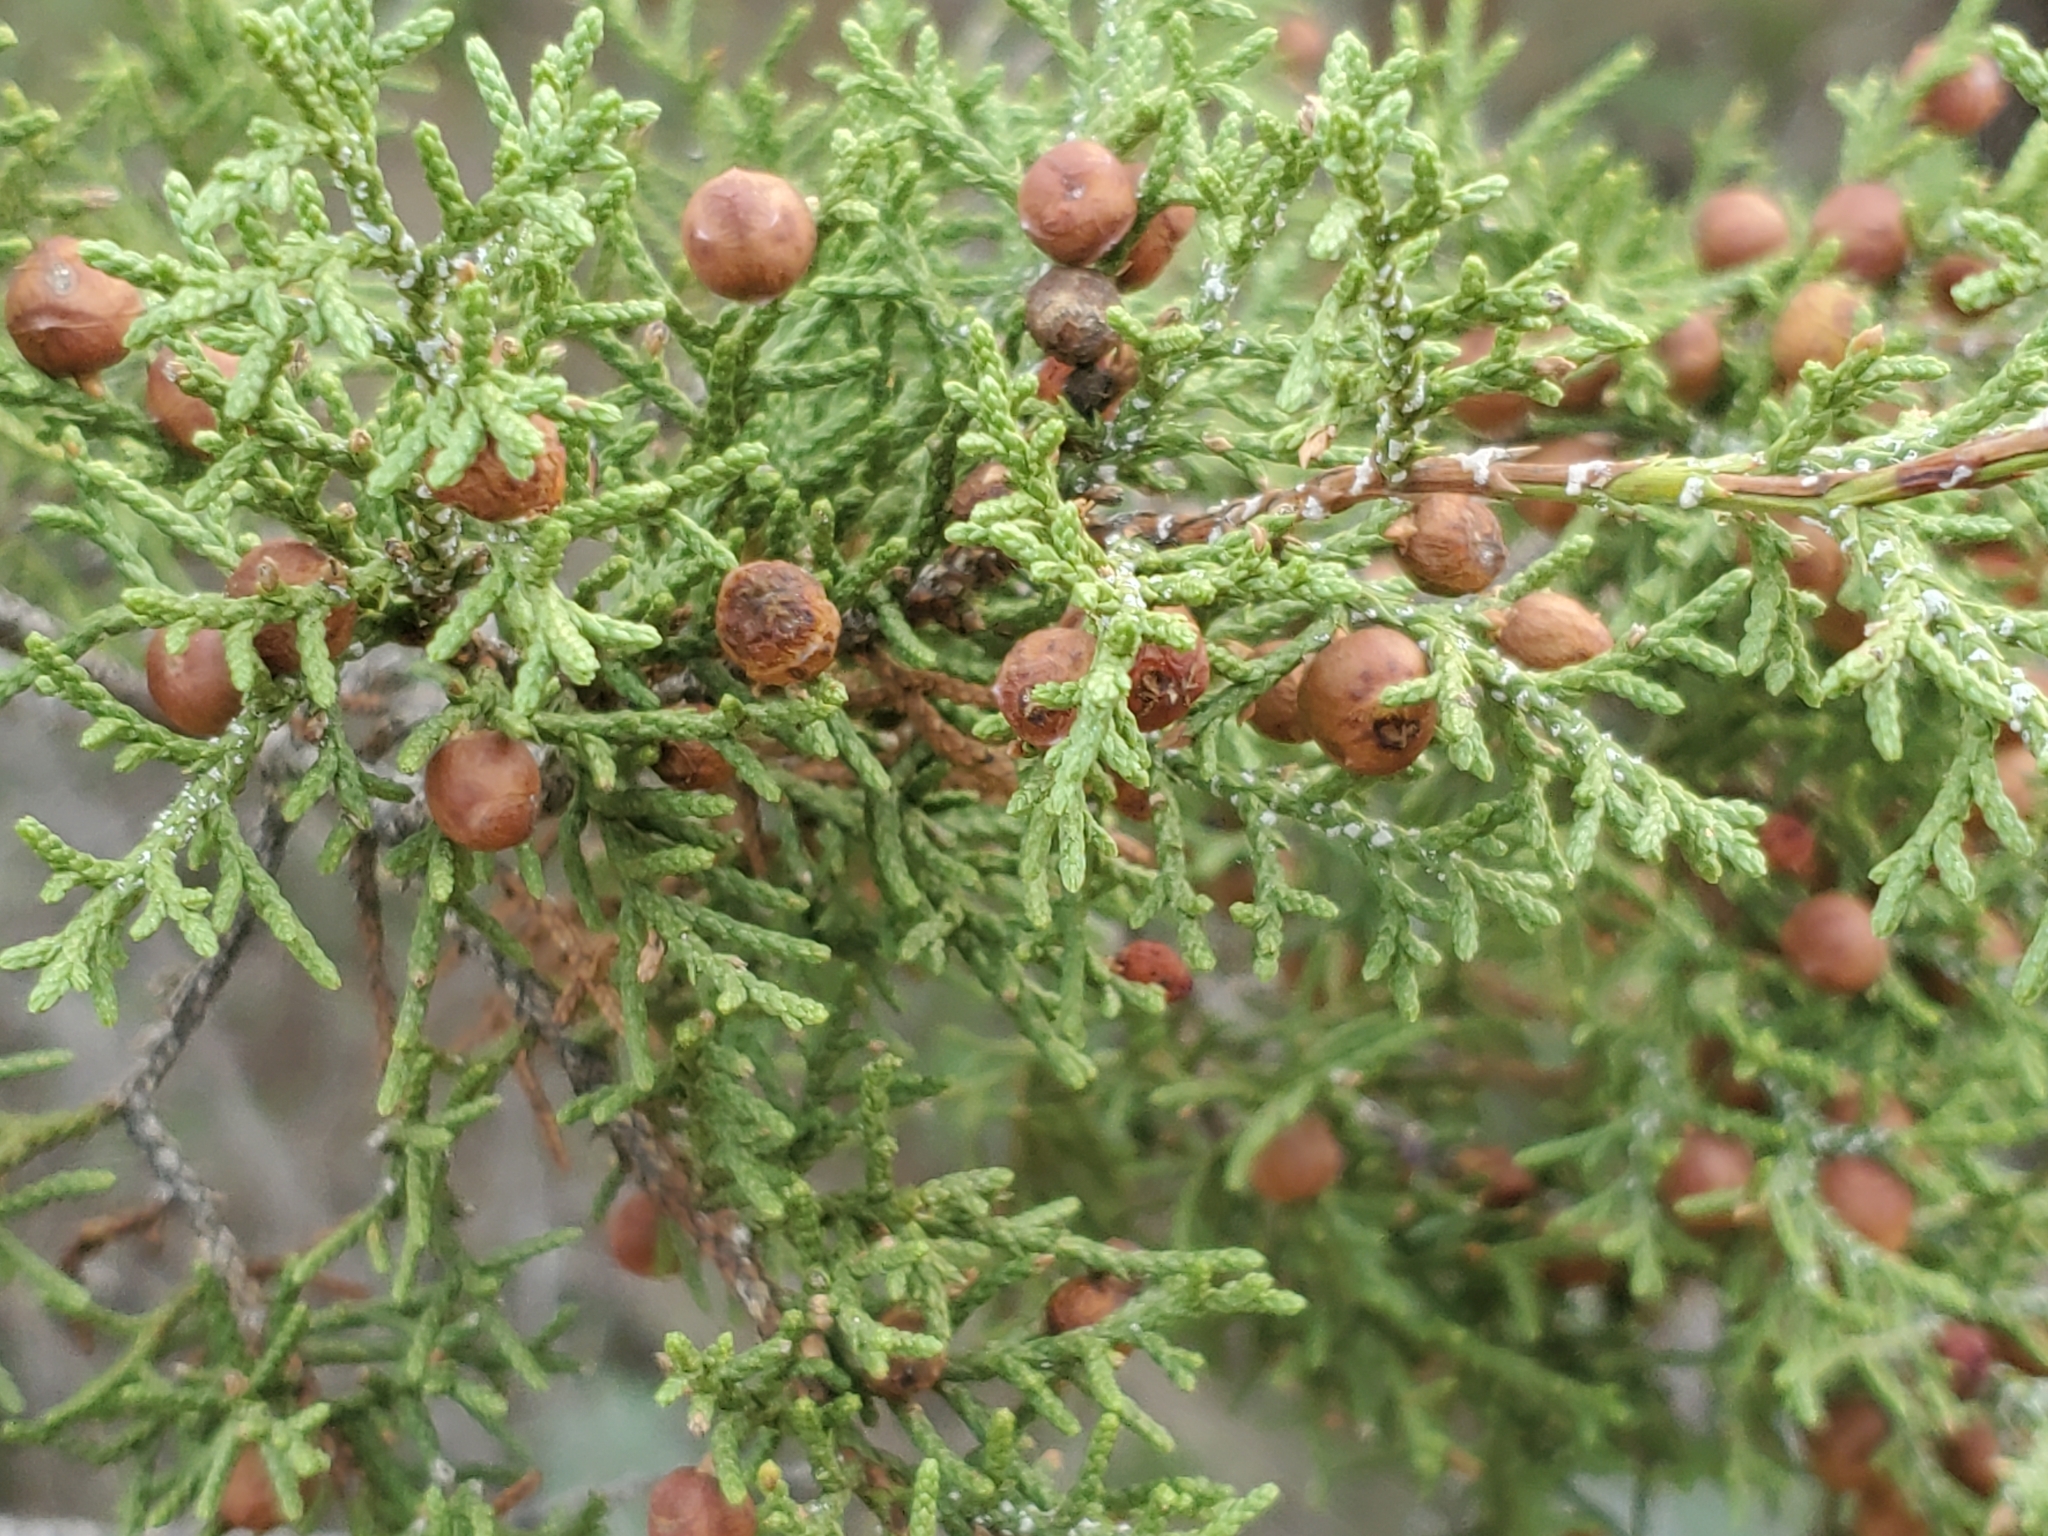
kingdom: Plantae
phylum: Tracheophyta
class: Pinopsida
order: Pinales
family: Cupressaceae
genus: Juniperus
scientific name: Juniperus pinchotii
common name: Pinchot juniper
